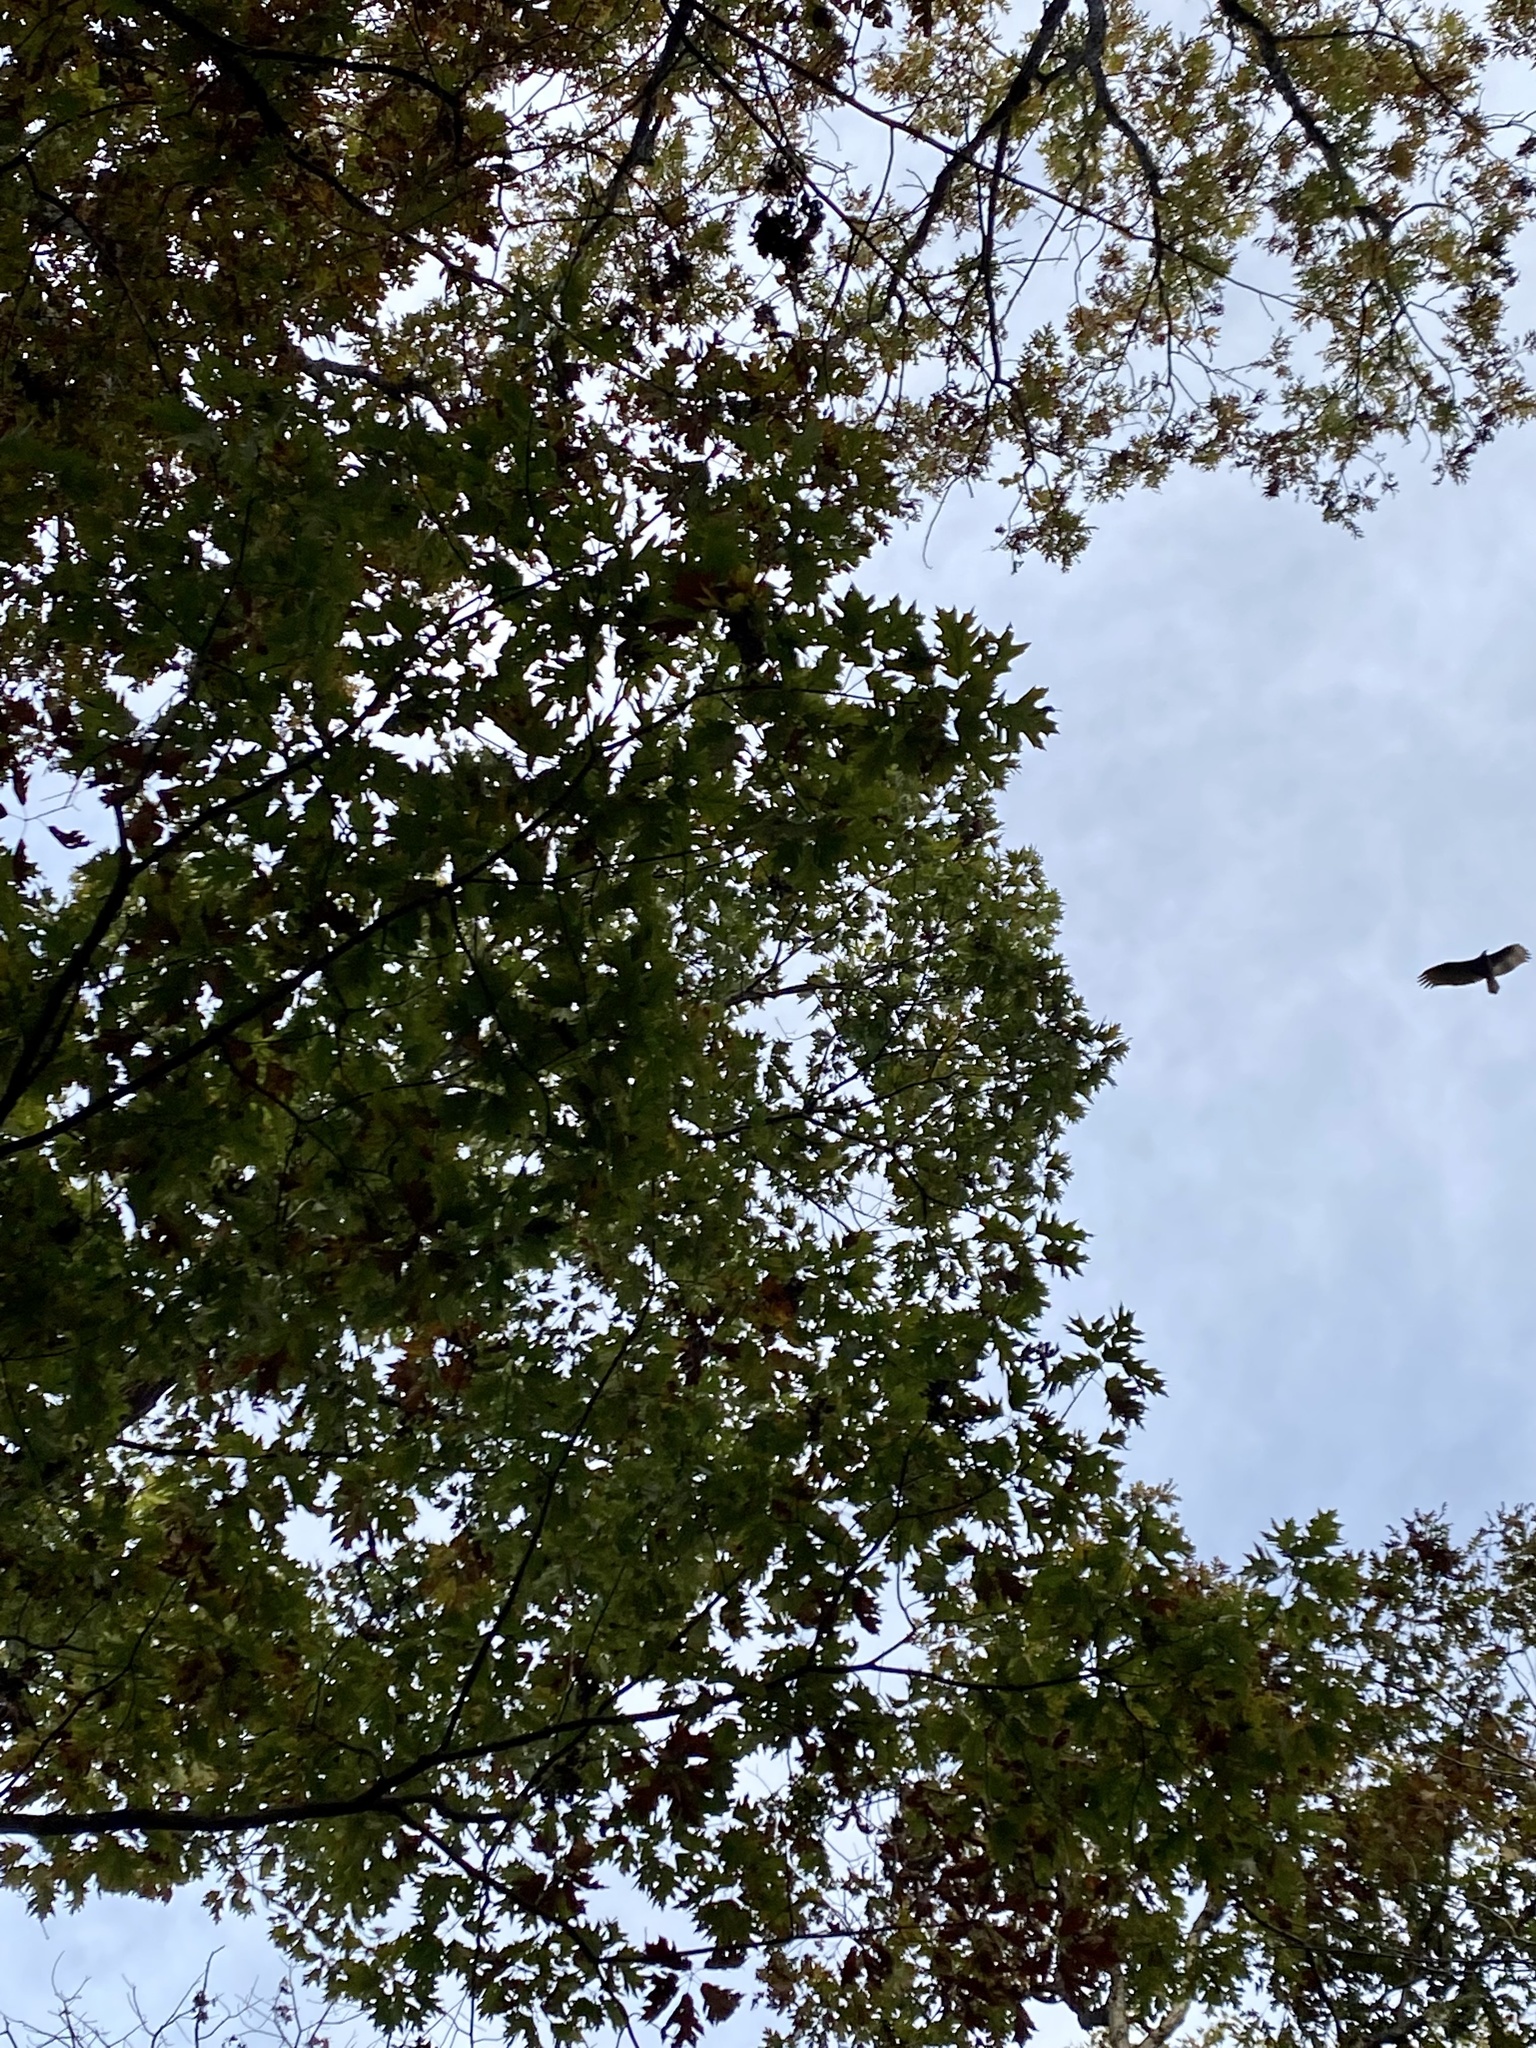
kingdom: Animalia
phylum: Chordata
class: Aves
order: Accipitriformes
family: Cathartidae
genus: Cathartes
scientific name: Cathartes aura
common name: Turkey vulture
